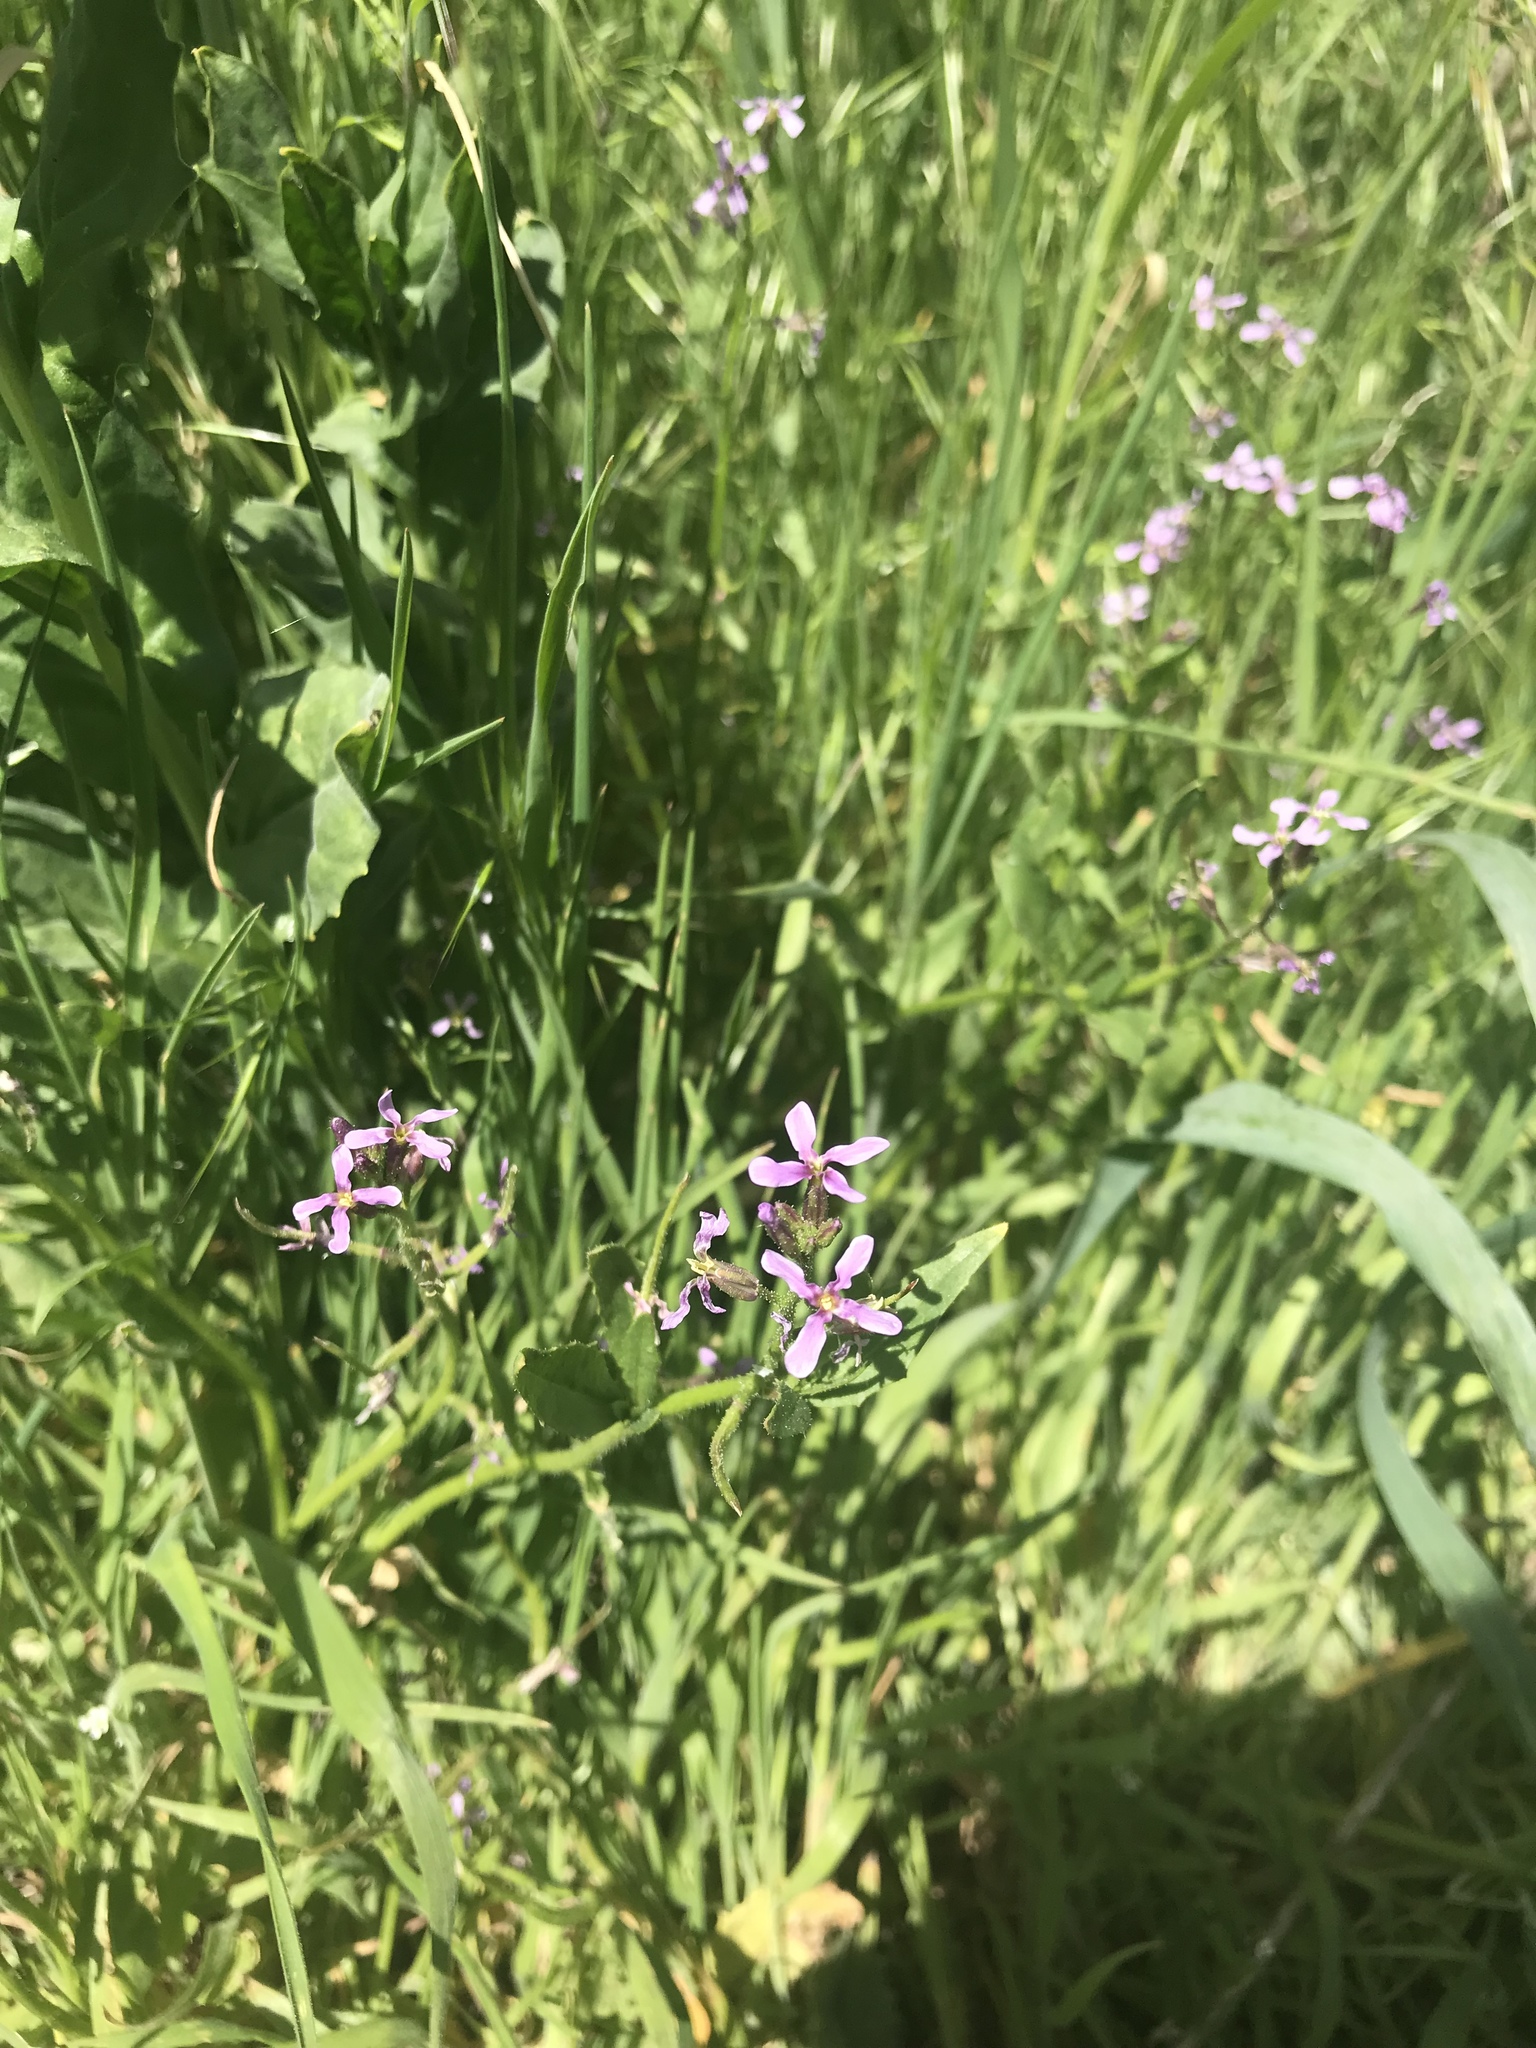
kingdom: Plantae
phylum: Tracheophyta
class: Magnoliopsida
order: Brassicales
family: Brassicaceae
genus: Chorispora
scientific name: Chorispora tenella
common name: Crossflower
